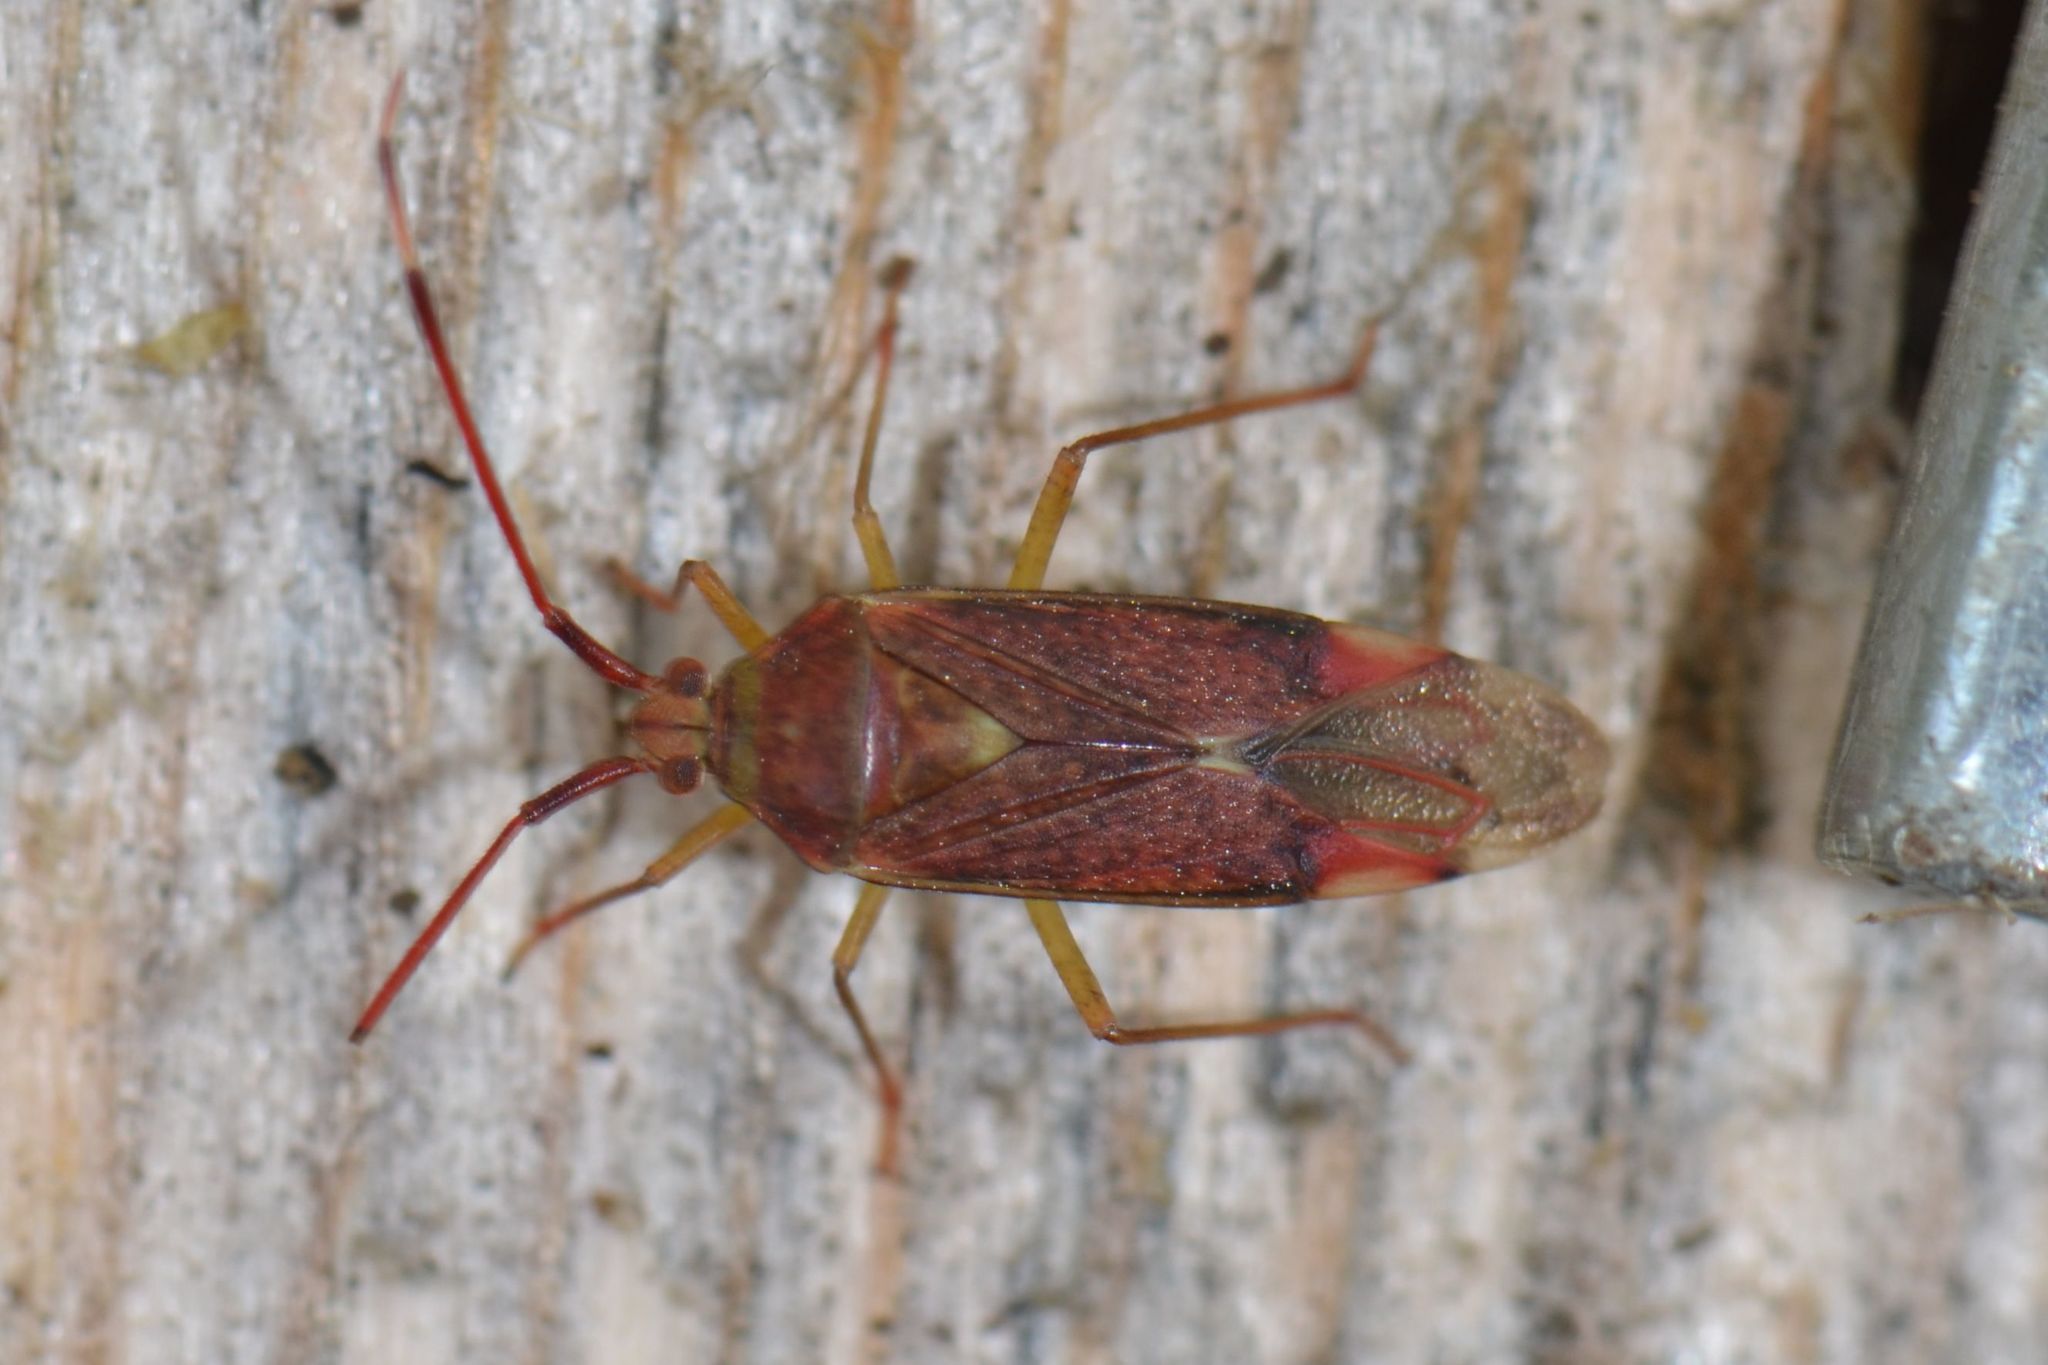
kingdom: Animalia
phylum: Arthropoda
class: Insecta
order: Hemiptera
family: Miridae
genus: Pantilius
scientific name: Pantilius tunicatus
